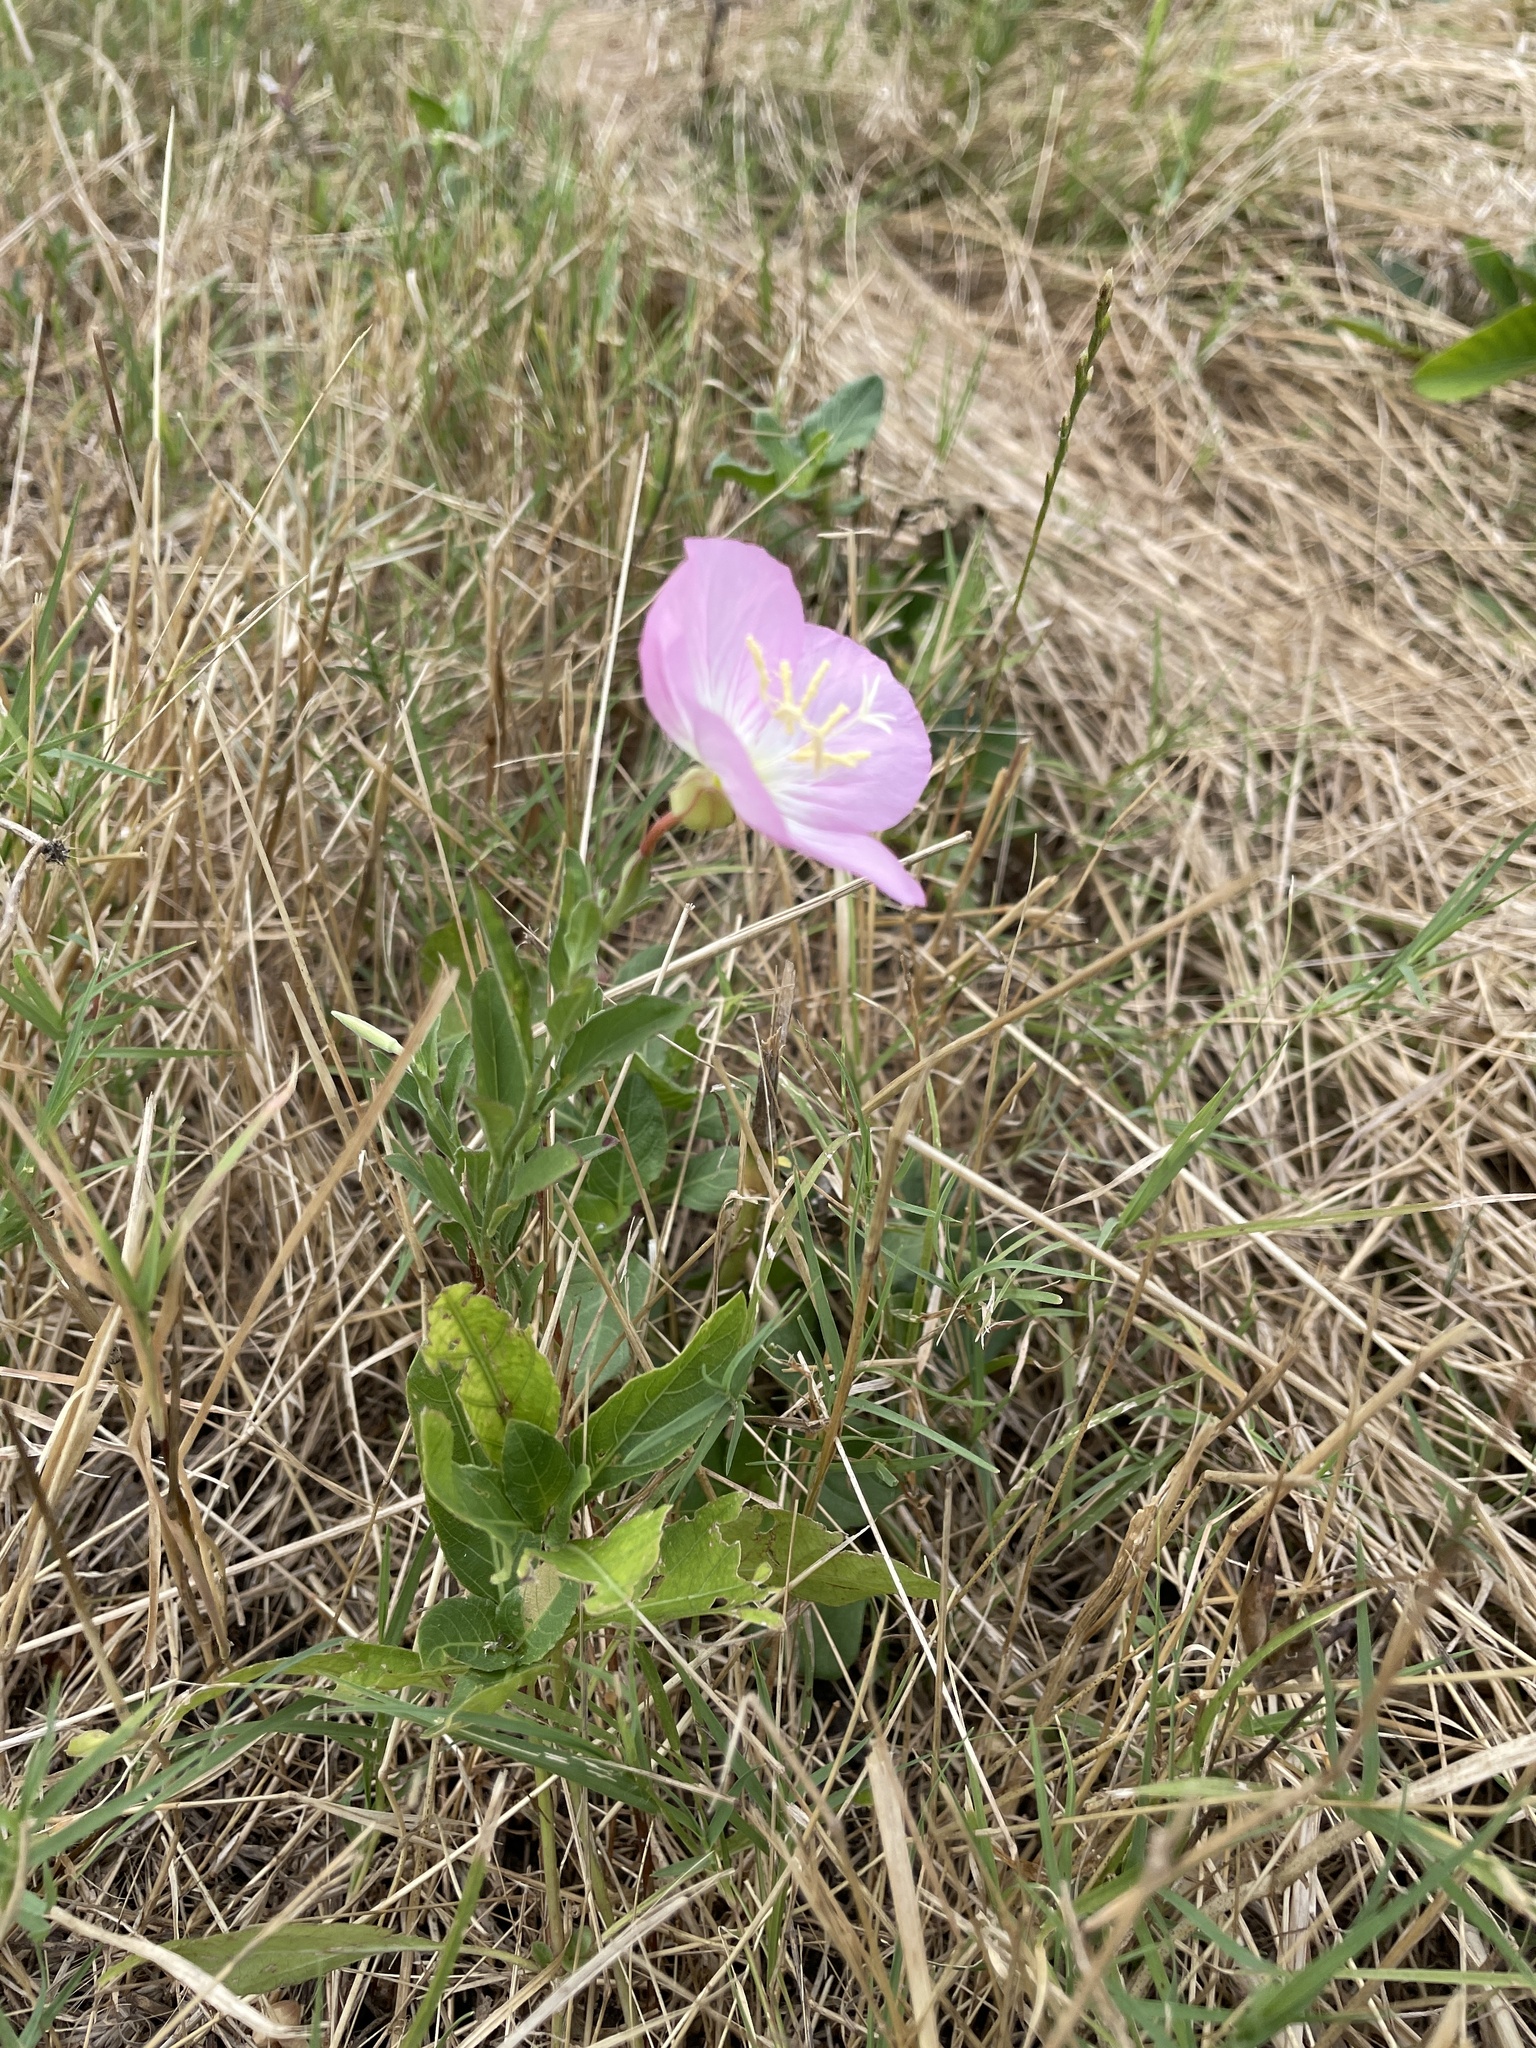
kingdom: Plantae
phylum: Tracheophyta
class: Magnoliopsida
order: Myrtales
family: Onagraceae
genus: Oenothera
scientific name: Oenothera speciosa
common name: White evening-primrose
